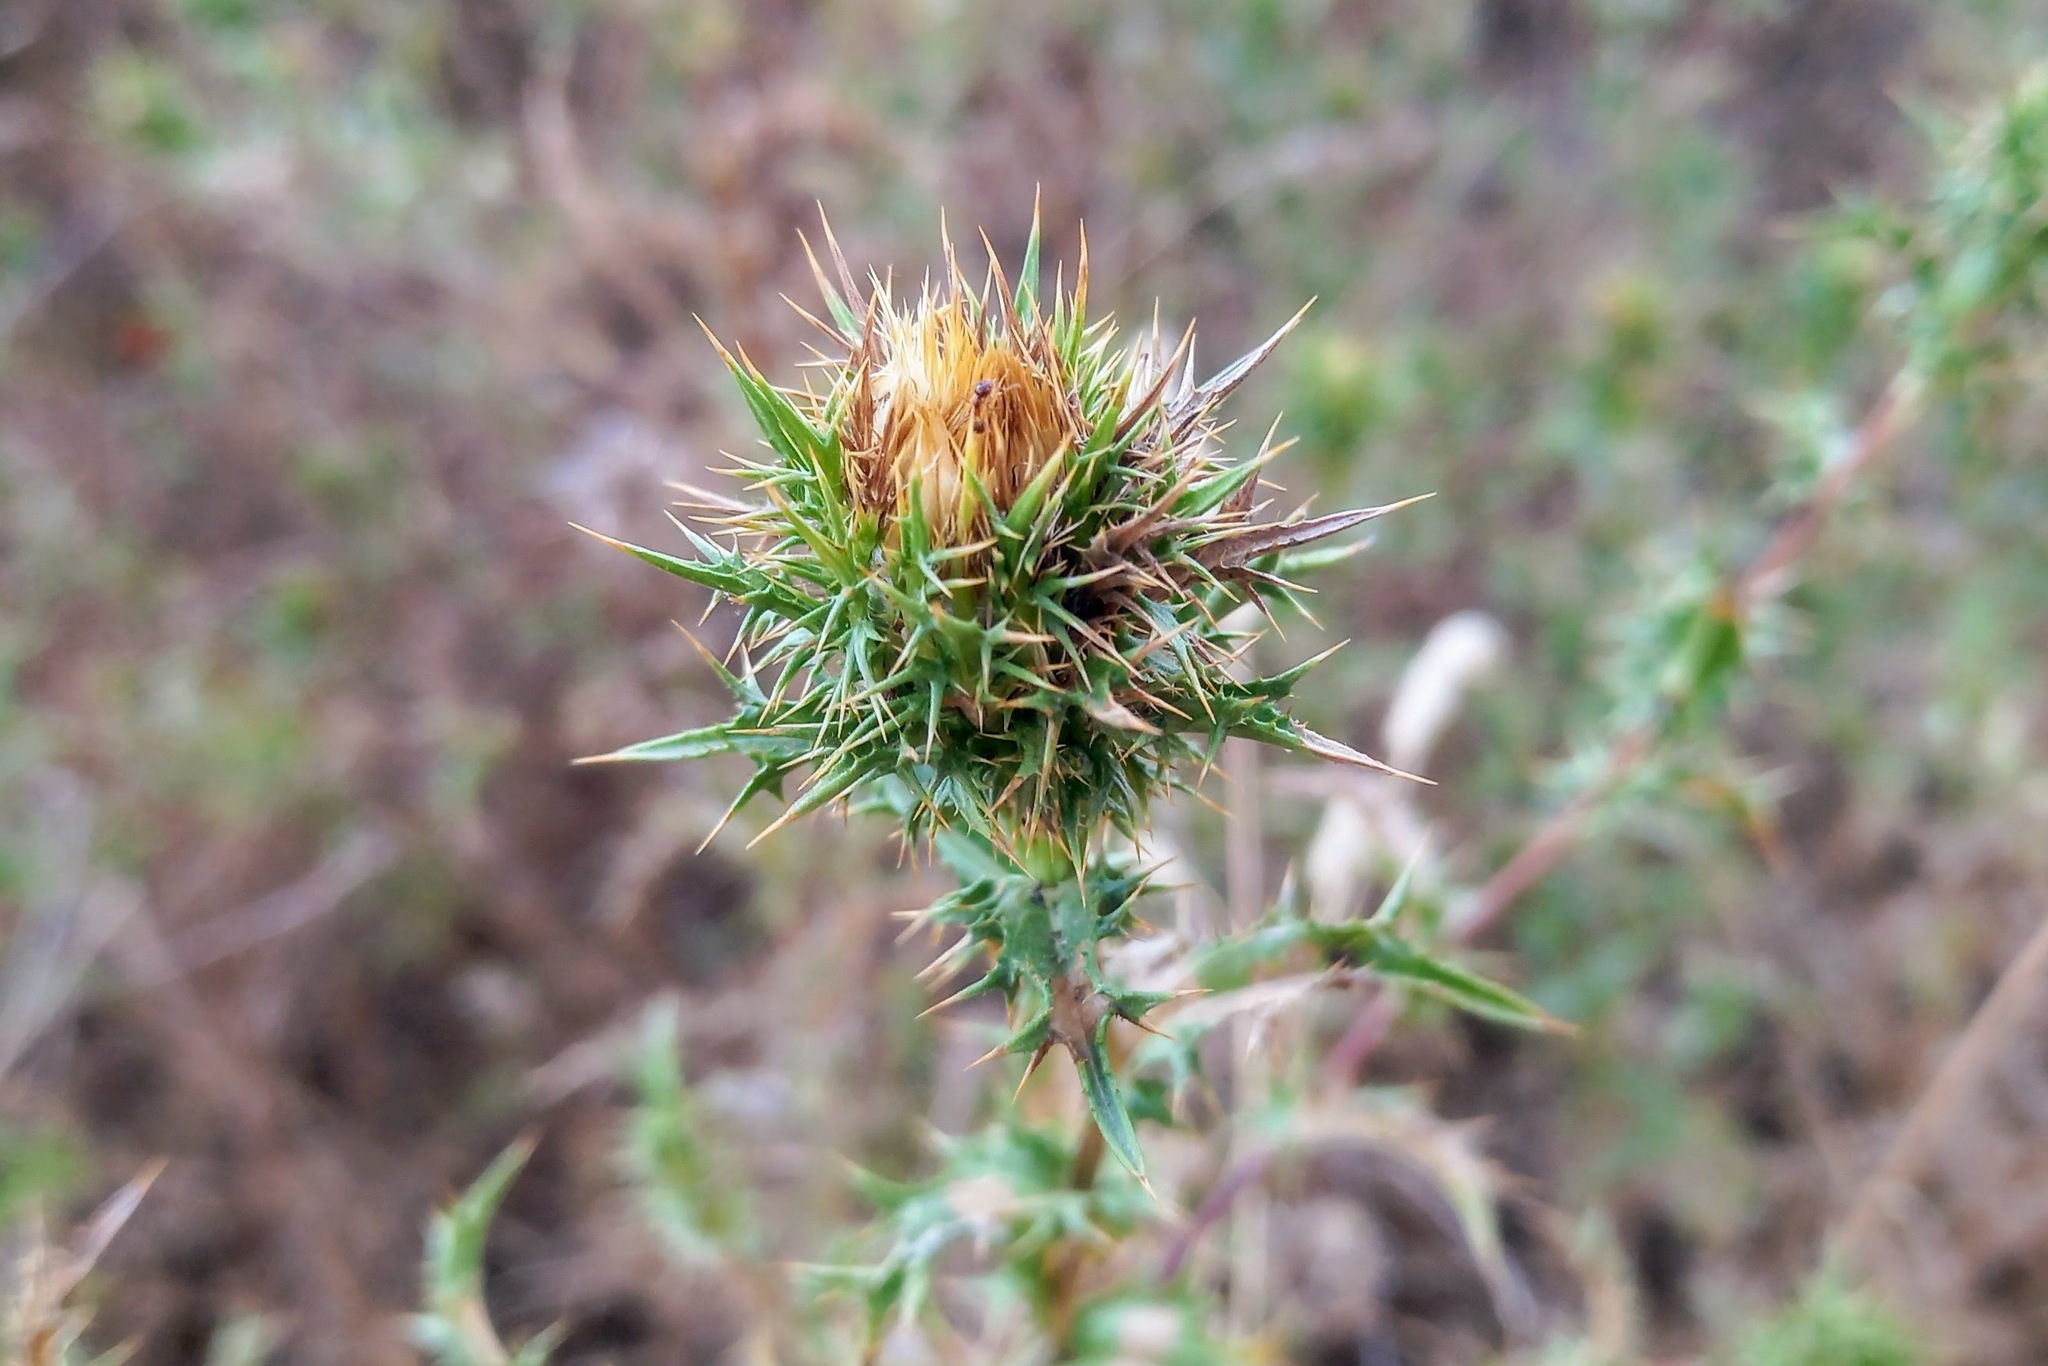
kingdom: Plantae
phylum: Tracheophyta
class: Magnoliopsida
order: Asterales
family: Asteraceae
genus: Carlina
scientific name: Carlina hispanica
